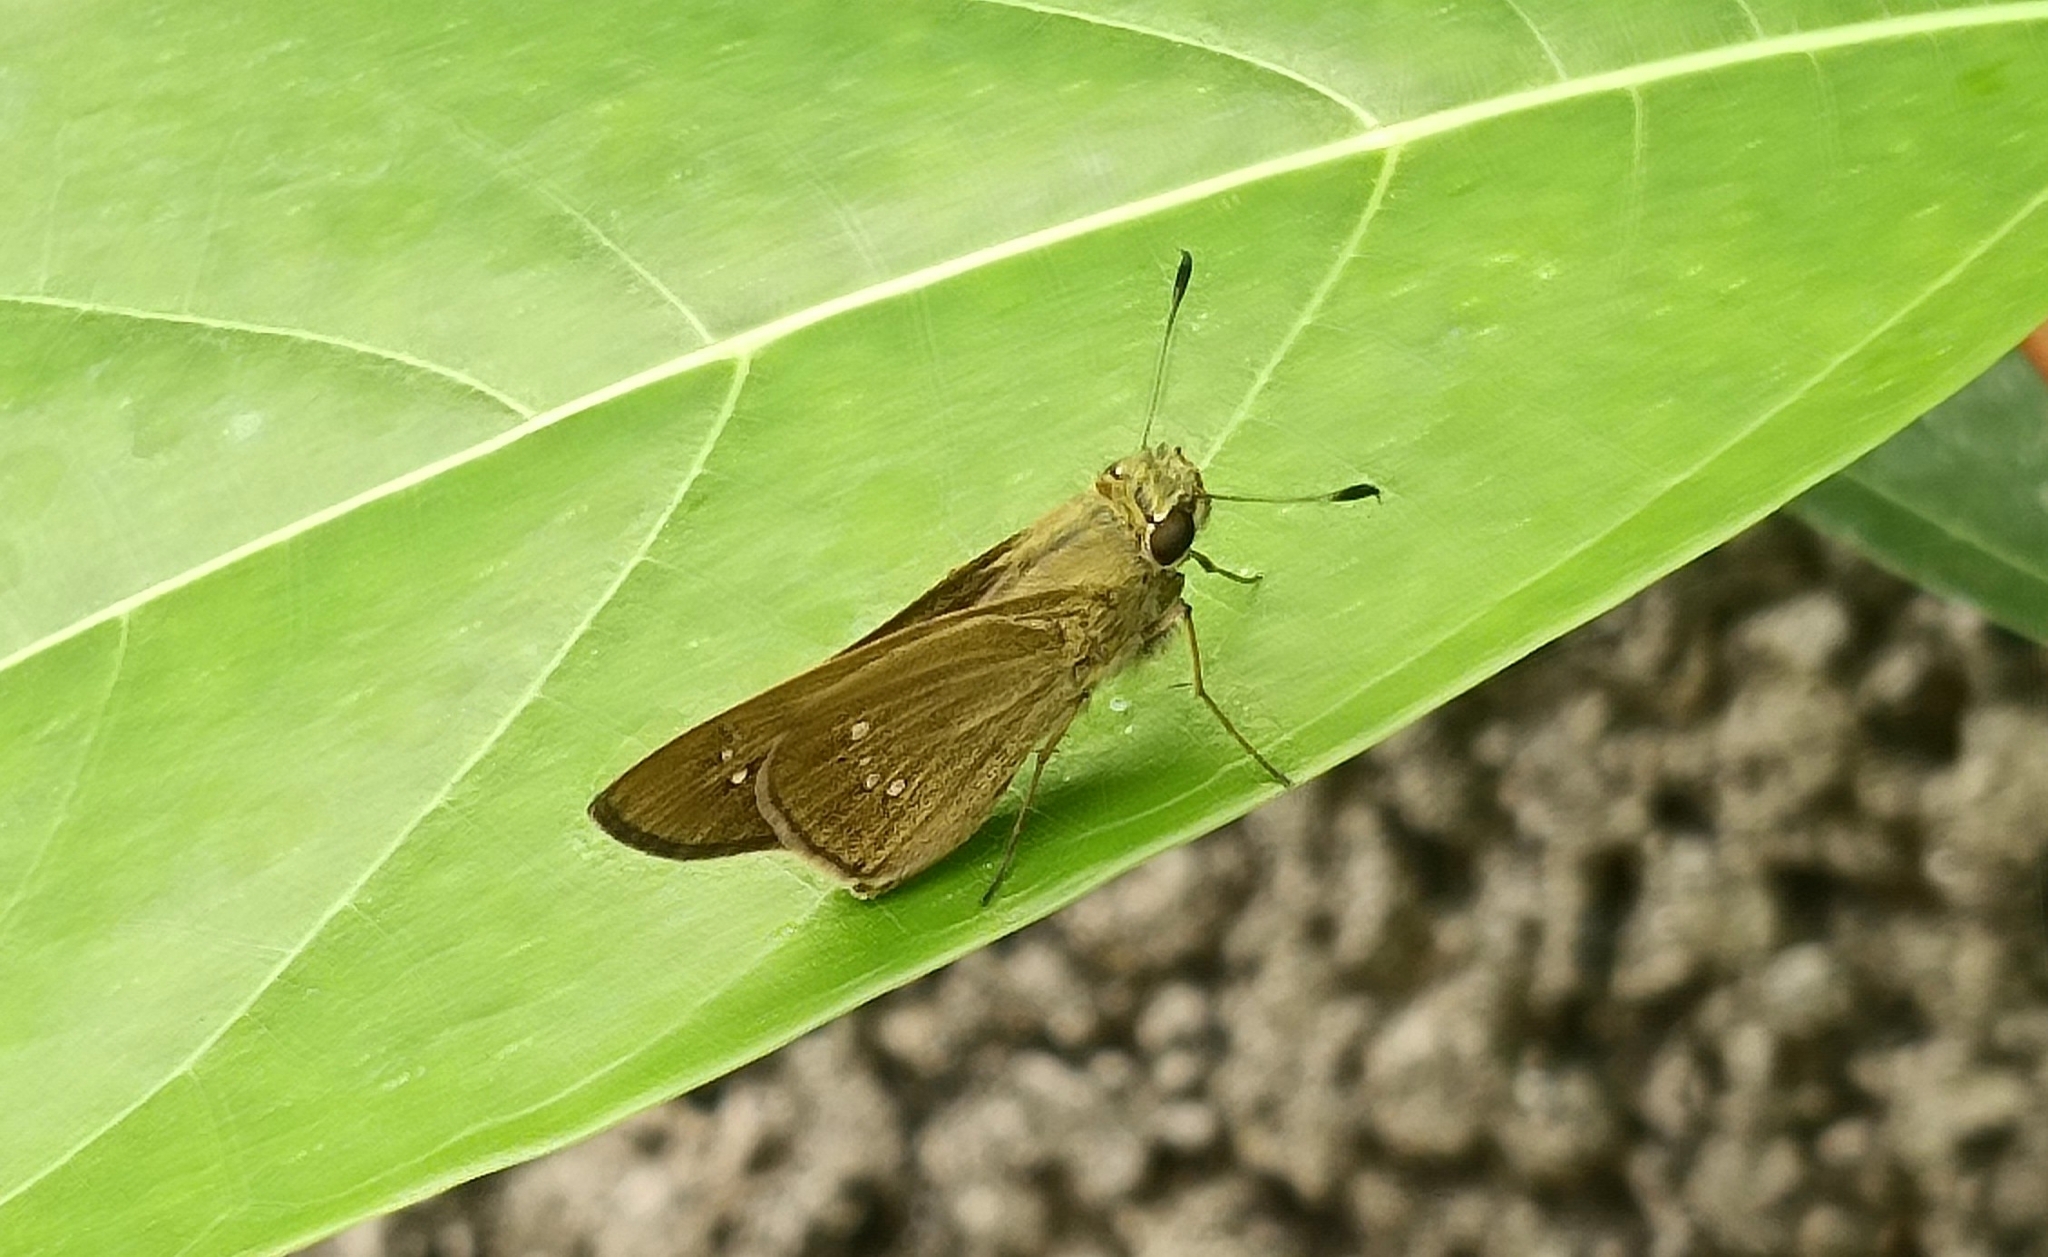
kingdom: Animalia
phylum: Arthropoda
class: Insecta
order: Lepidoptera
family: Hesperiidae
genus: Borbo
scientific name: Borbo cinnara
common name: Formosan swift
